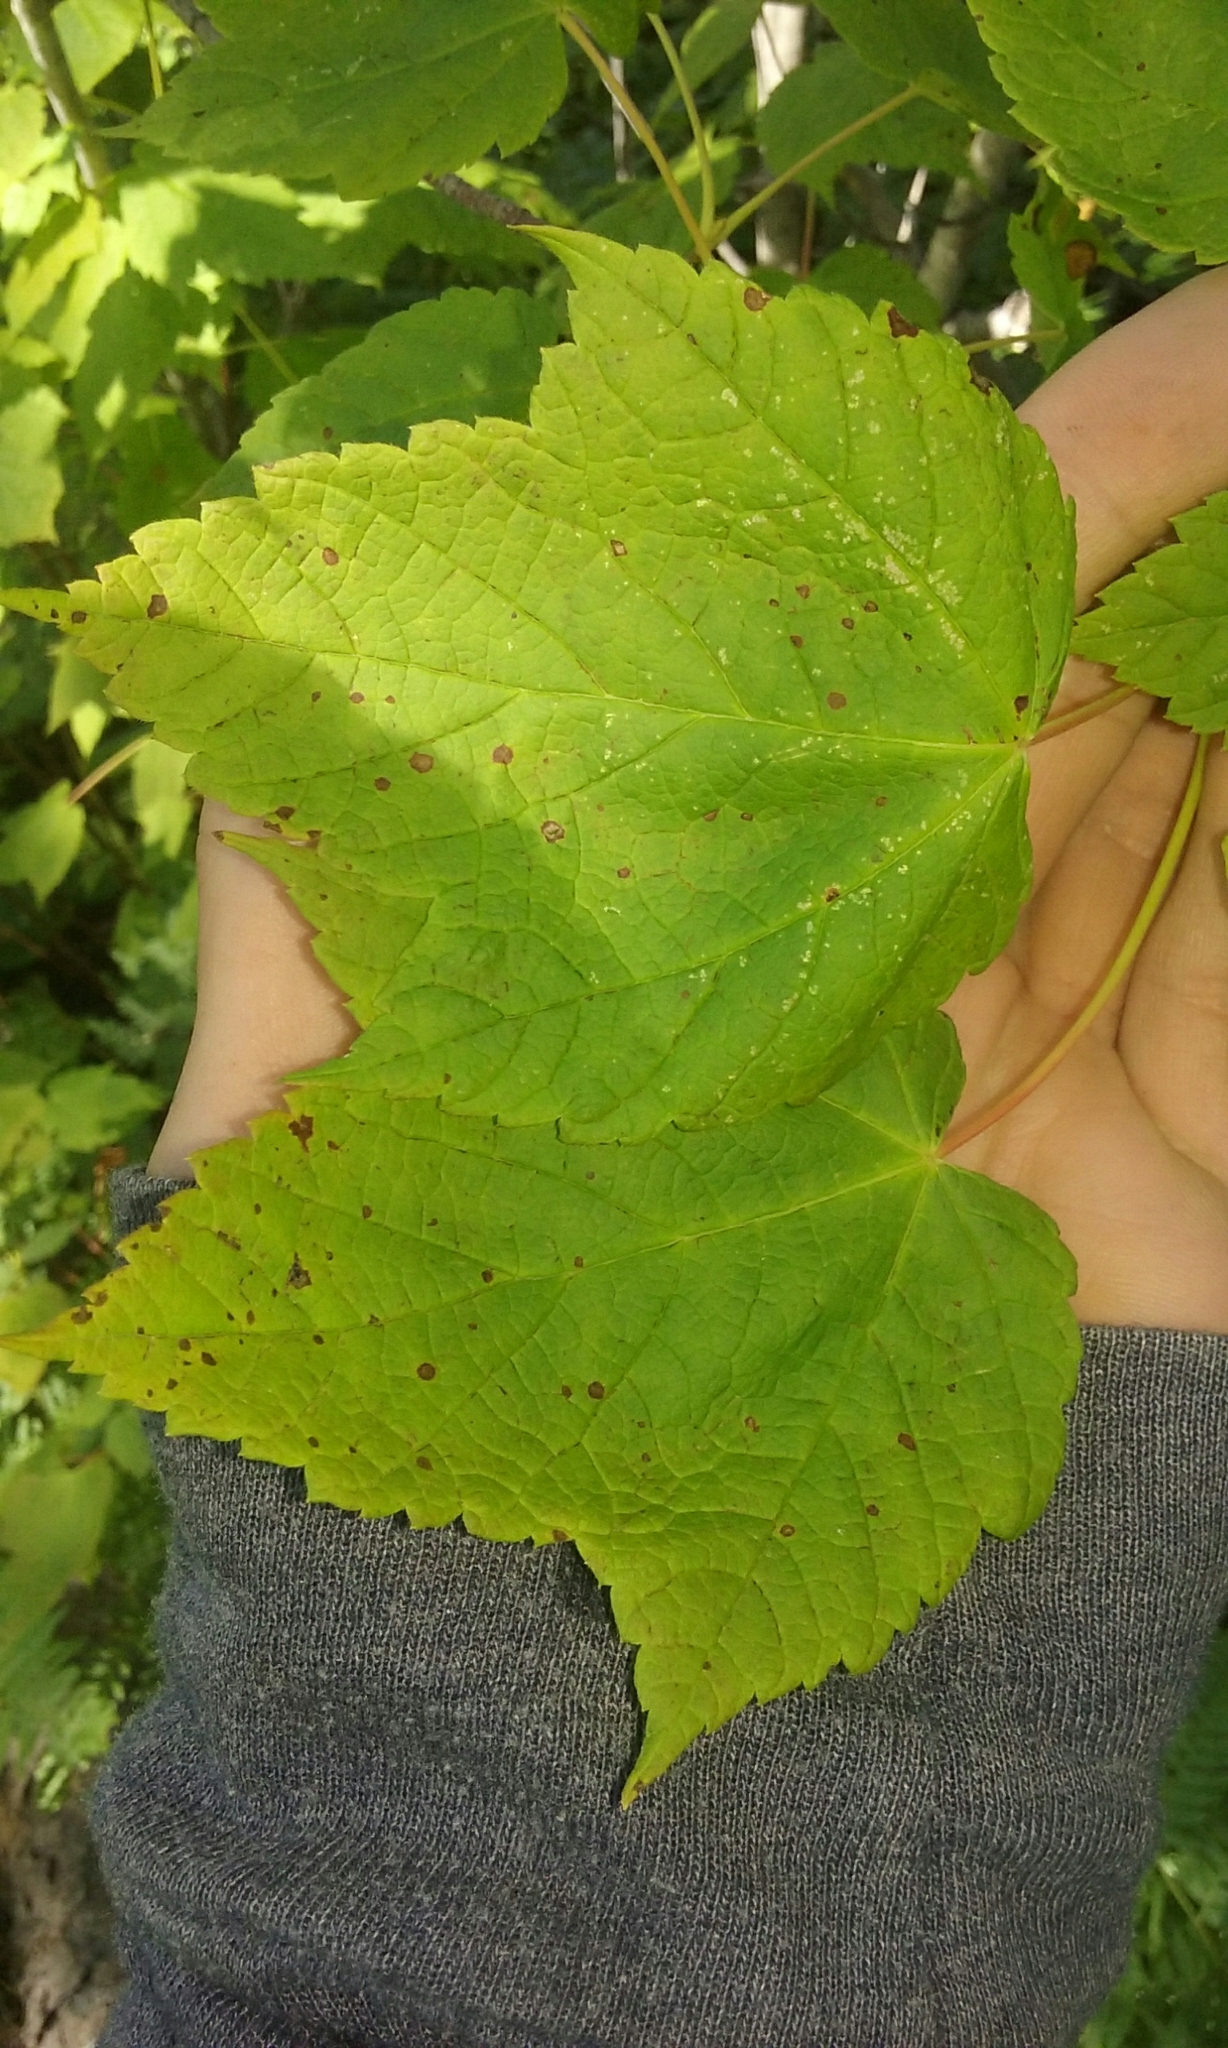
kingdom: Plantae
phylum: Tracheophyta
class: Magnoliopsida
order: Sapindales
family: Sapindaceae
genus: Acer
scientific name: Acer spicatum
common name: Mountain maple
